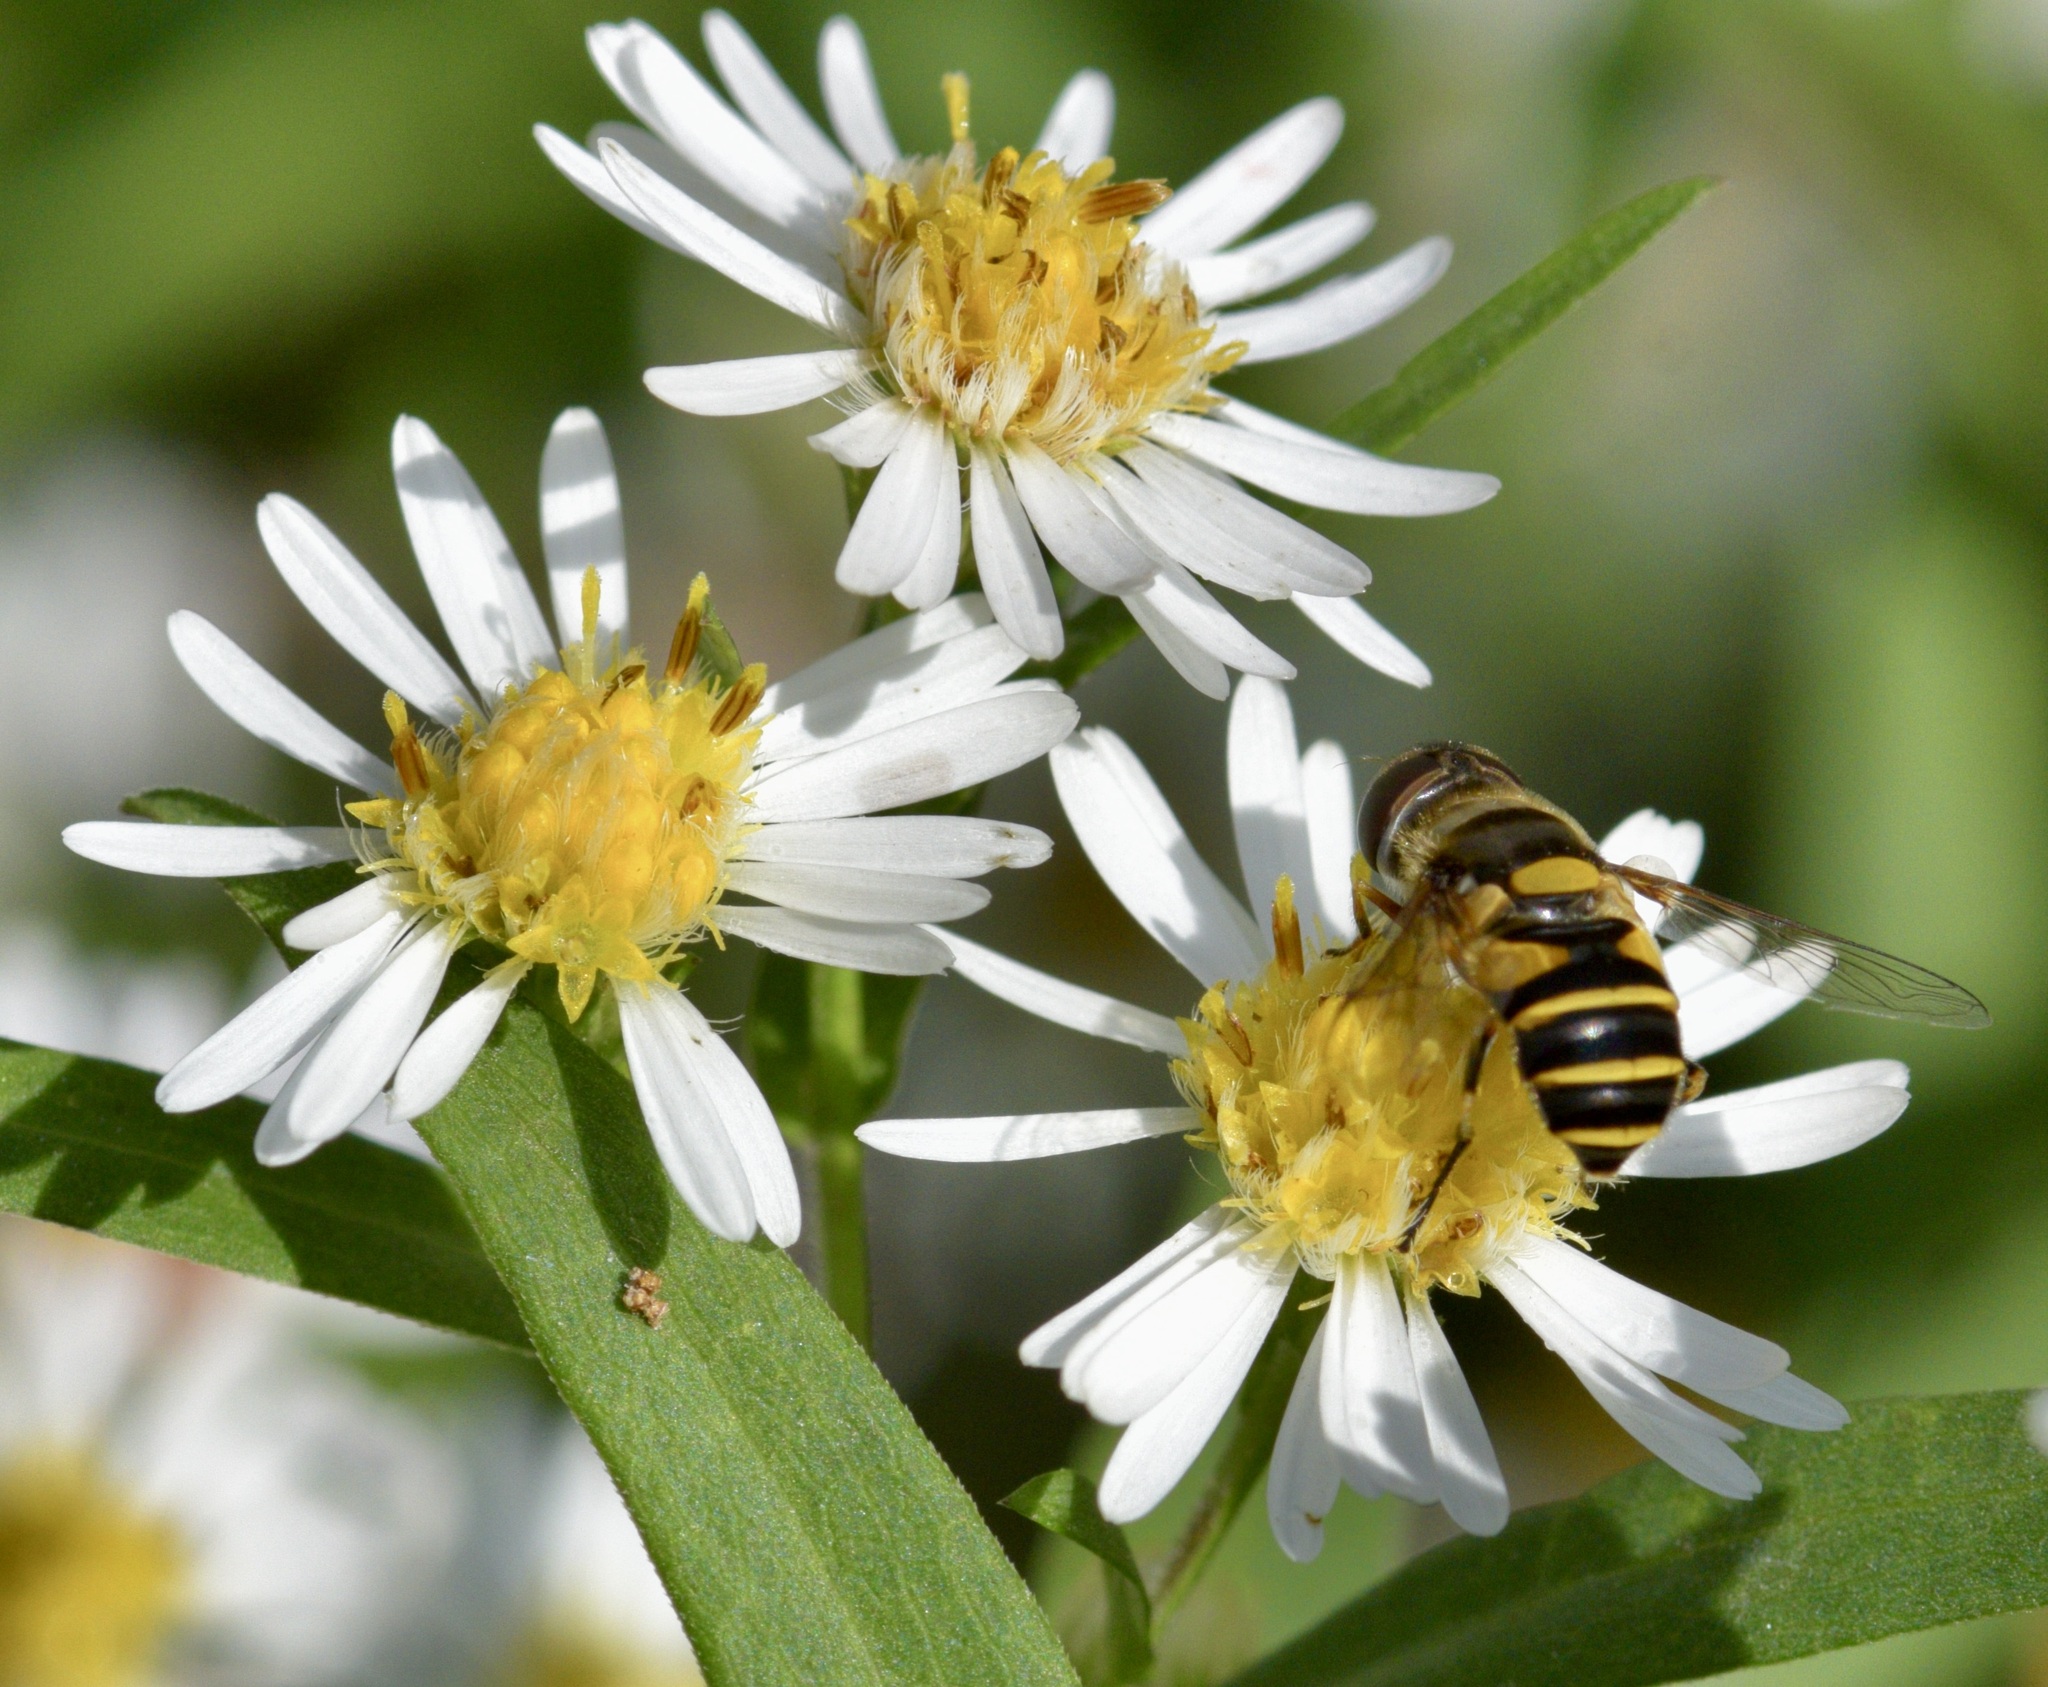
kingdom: Animalia
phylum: Arthropoda
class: Insecta
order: Diptera
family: Syrphidae
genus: Eristalis
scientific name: Eristalis transversa
